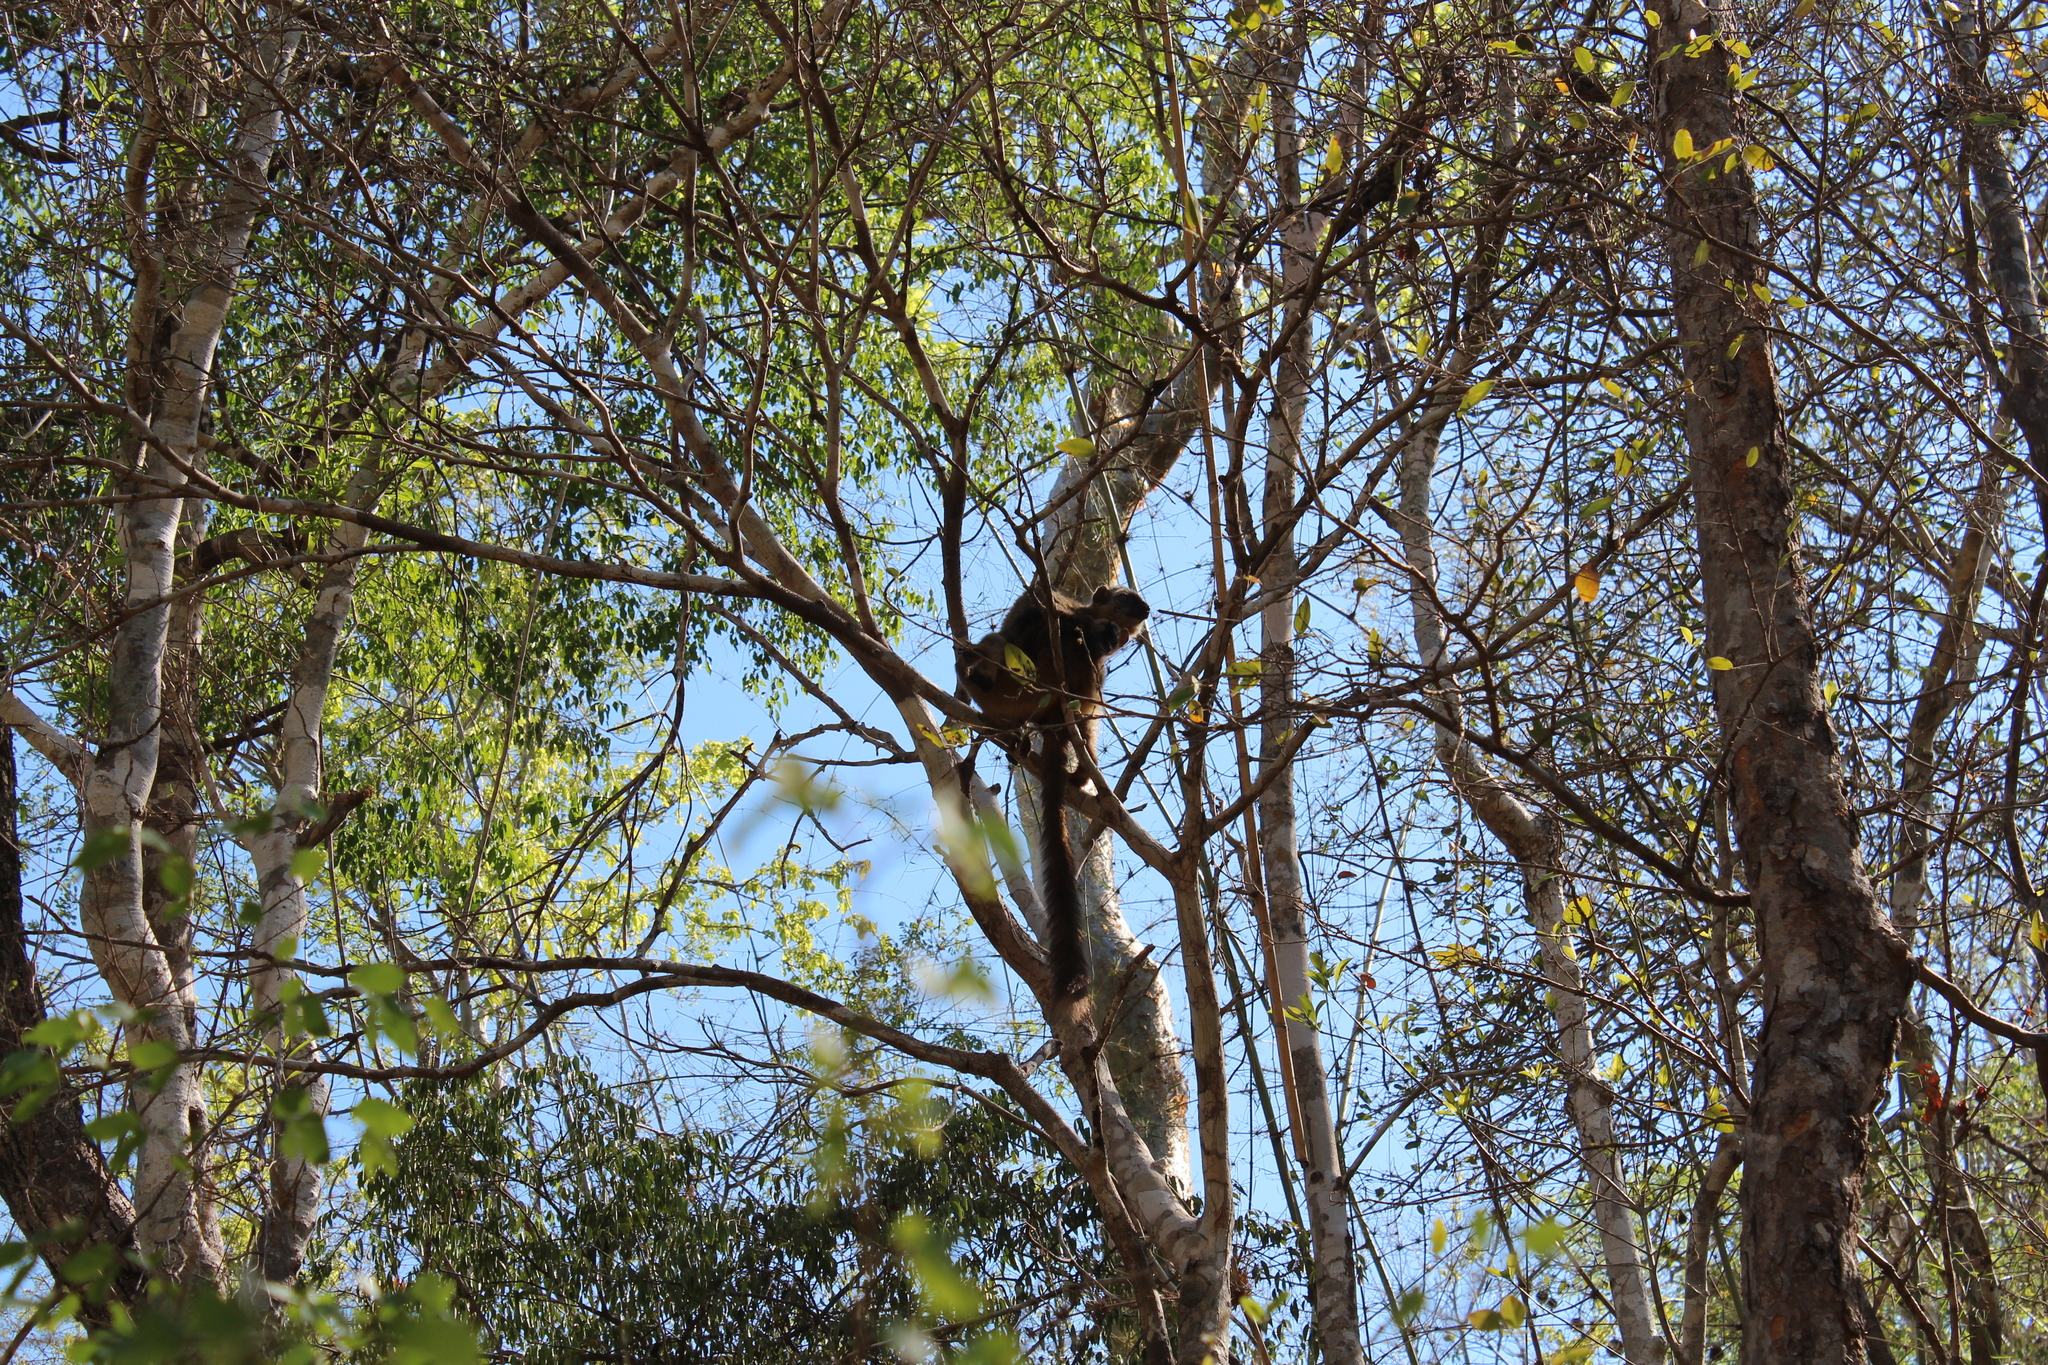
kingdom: Animalia
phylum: Chordata
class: Mammalia
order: Primates
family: Lemuridae
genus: Eulemur
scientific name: Eulemur rufifrons
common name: Red-fronted brown lemur
